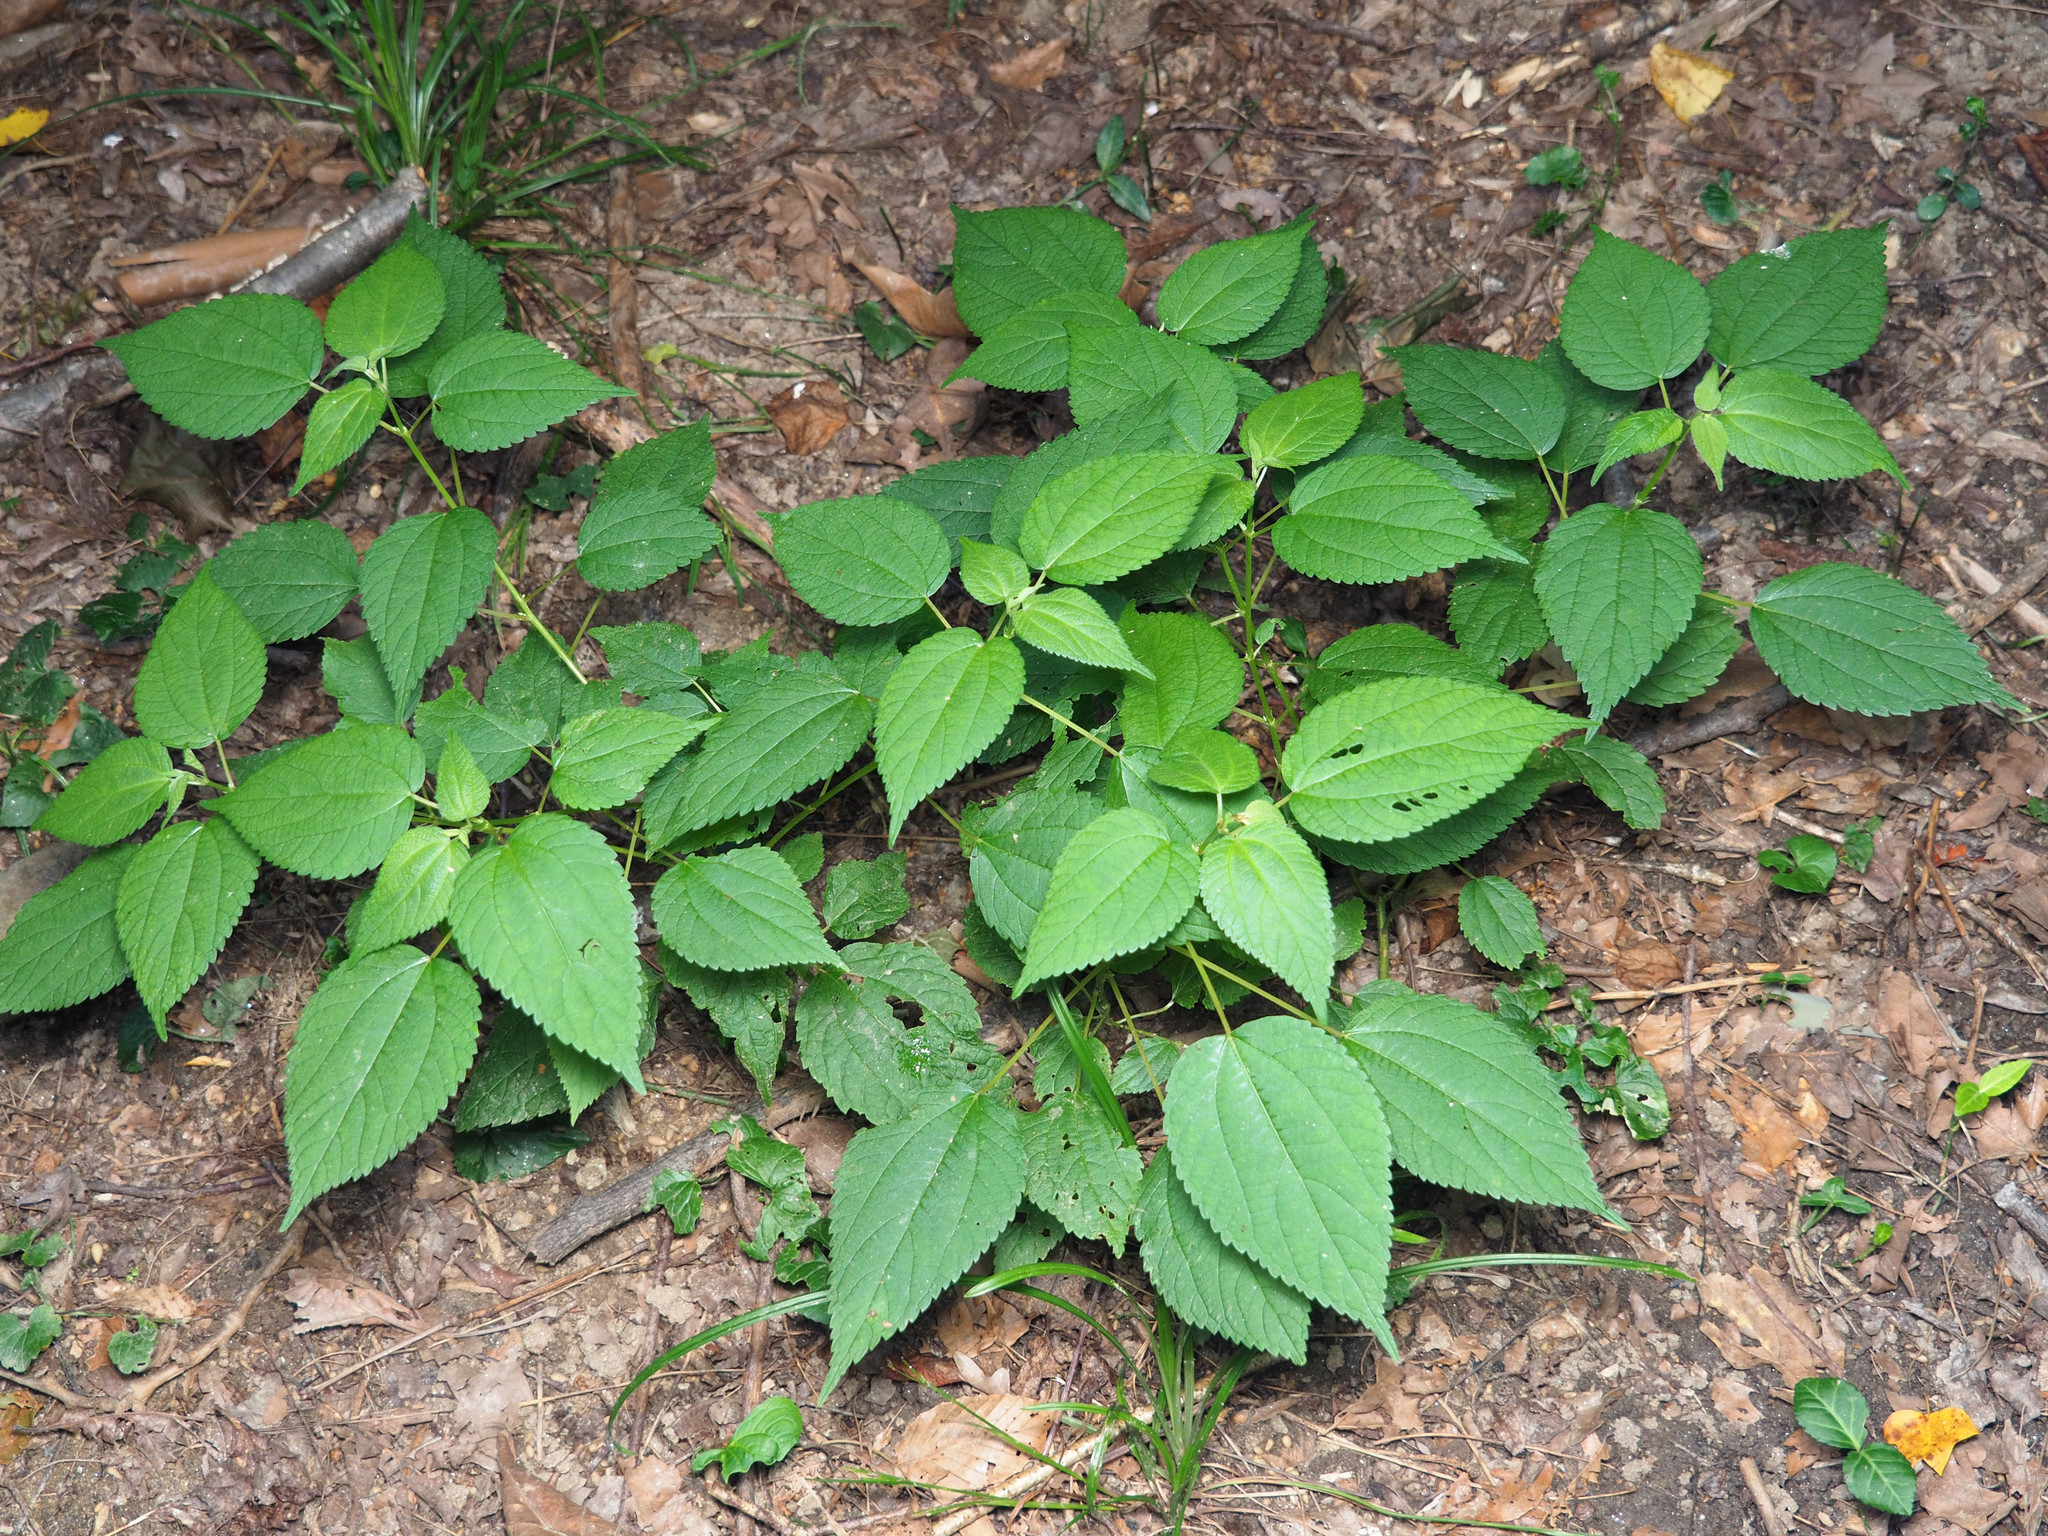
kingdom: Plantae
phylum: Tracheophyta
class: Magnoliopsida
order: Rosales
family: Urticaceae
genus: Boehmeria
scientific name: Boehmeria cylindrica
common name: Bog-hemp
